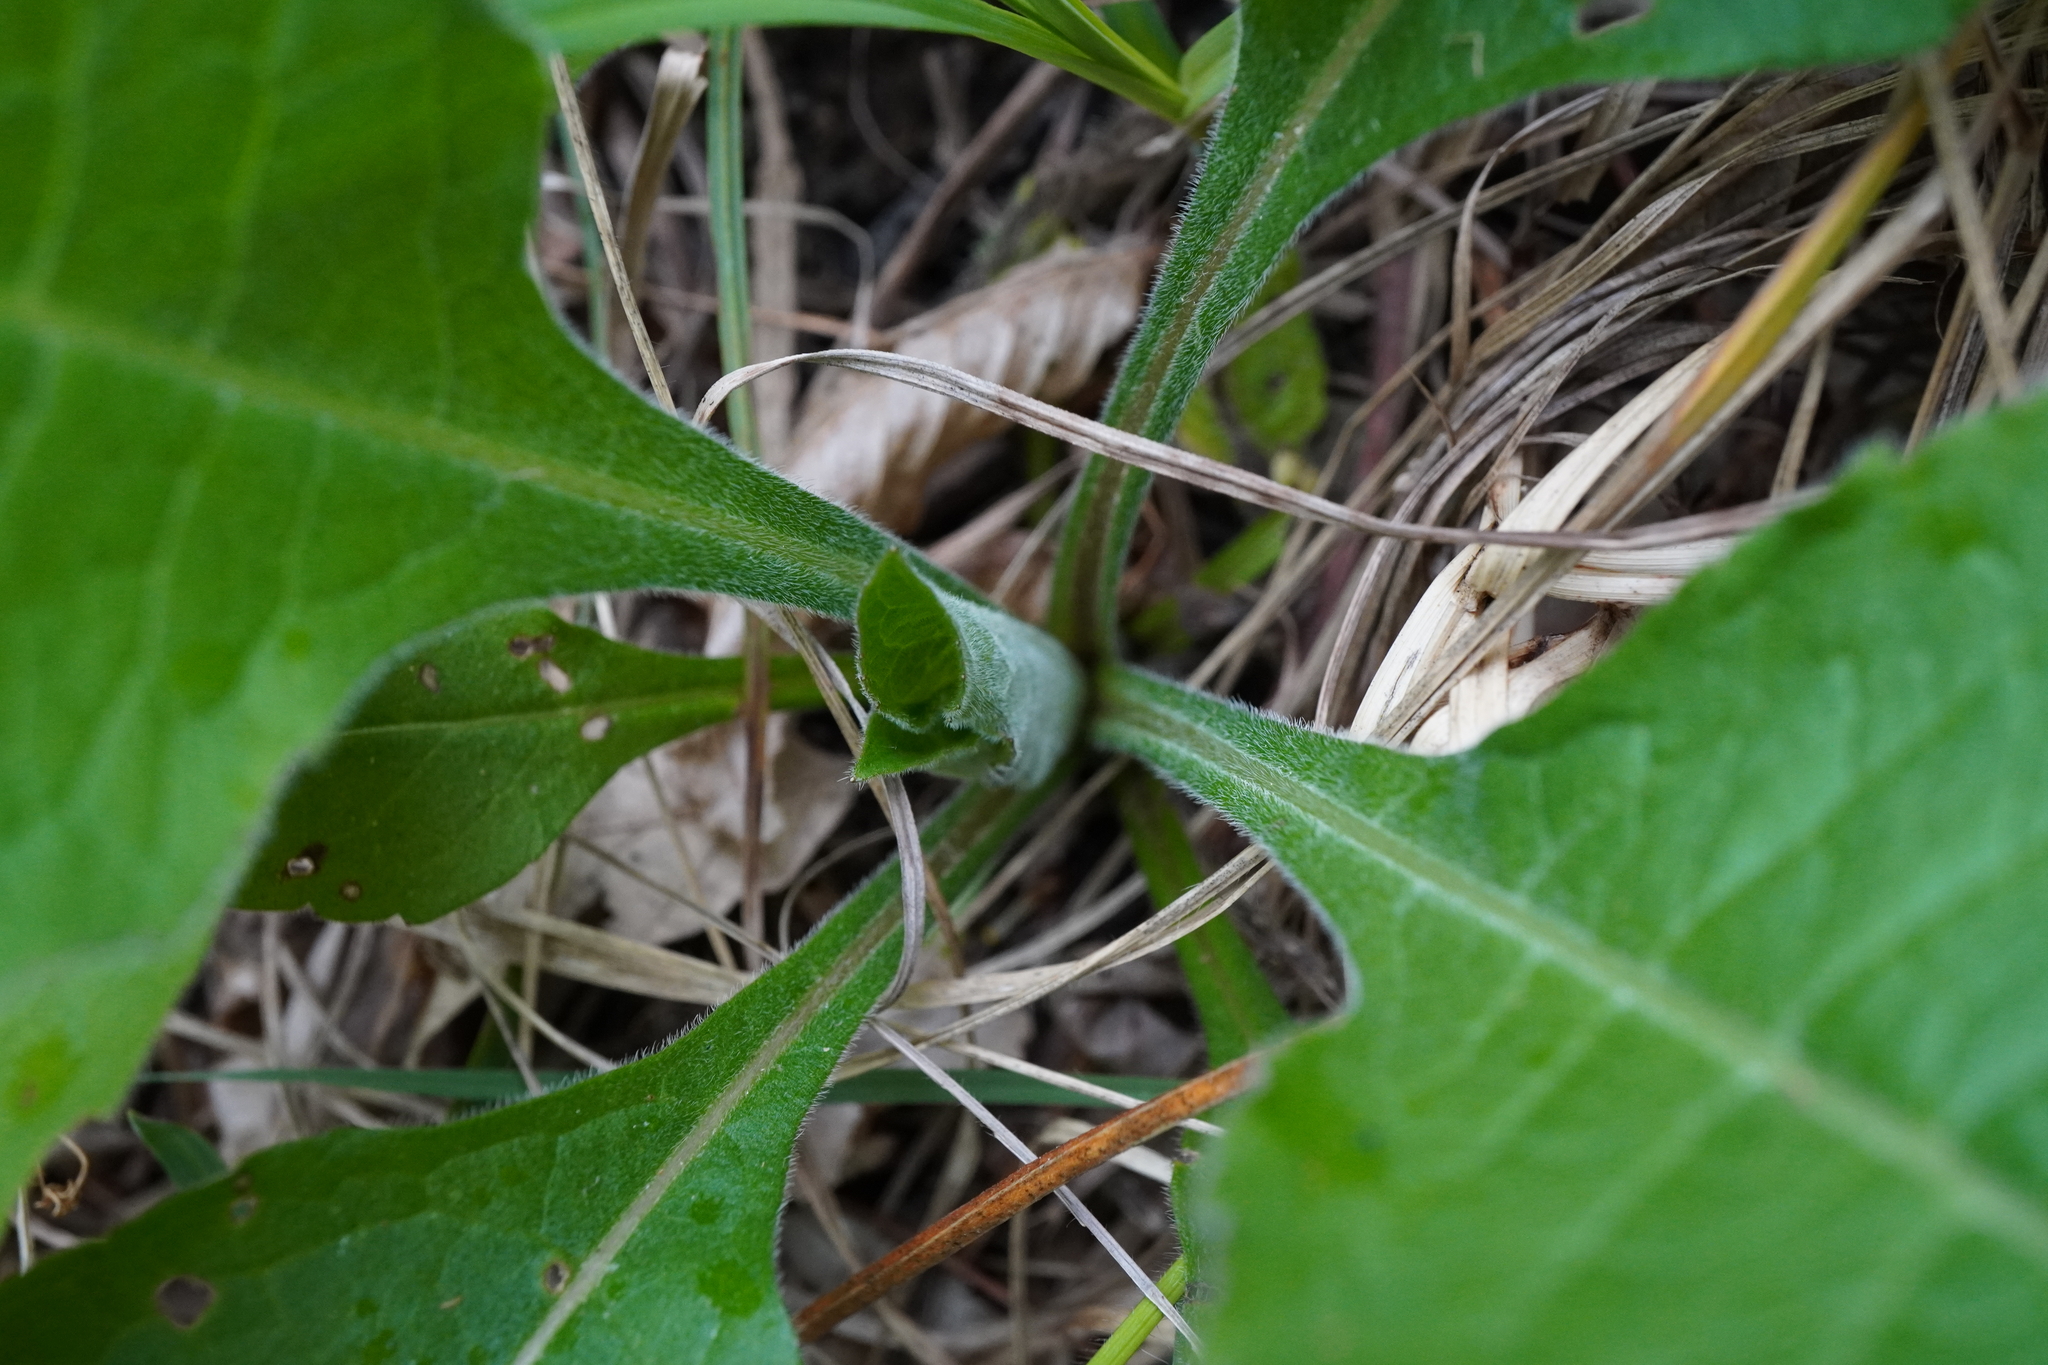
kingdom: Plantae
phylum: Tracheophyta
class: Magnoliopsida
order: Dipsacales
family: Caprifoliaceae
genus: Knautia
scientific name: Knautia drymeia
